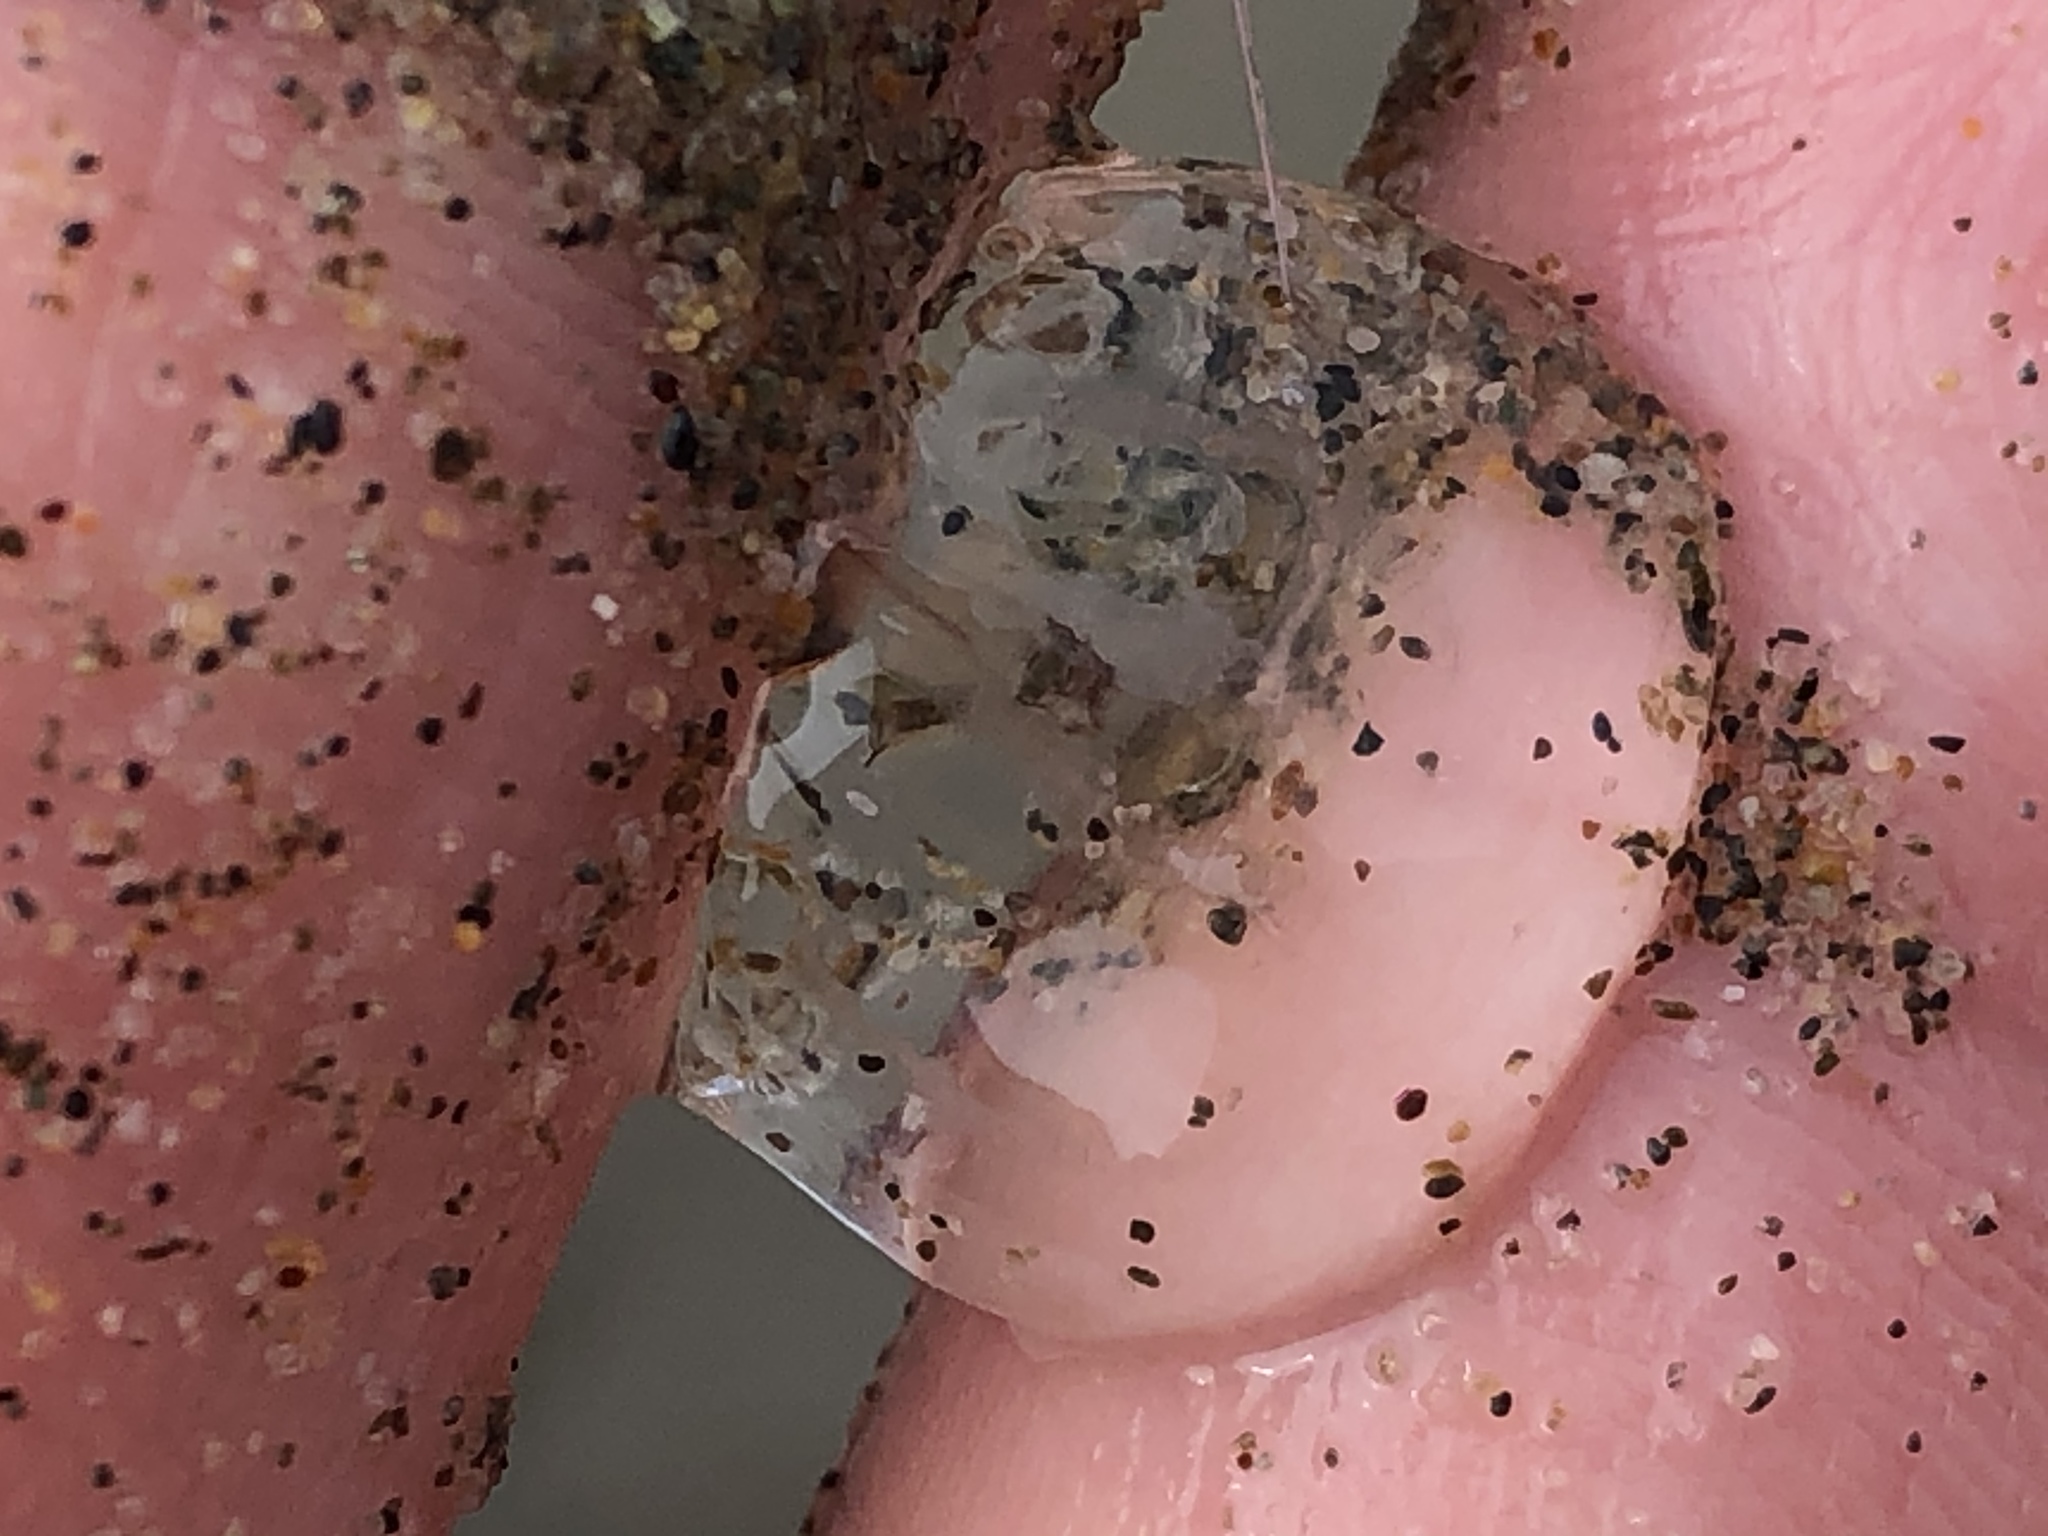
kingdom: Animalia
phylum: Ctenophora
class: Tentaculata
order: Cydippida
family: Pleurobrachiidae
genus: Pleurobrachia
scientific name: Pleurobrachia bachei
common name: Pacific sea gooseberry
